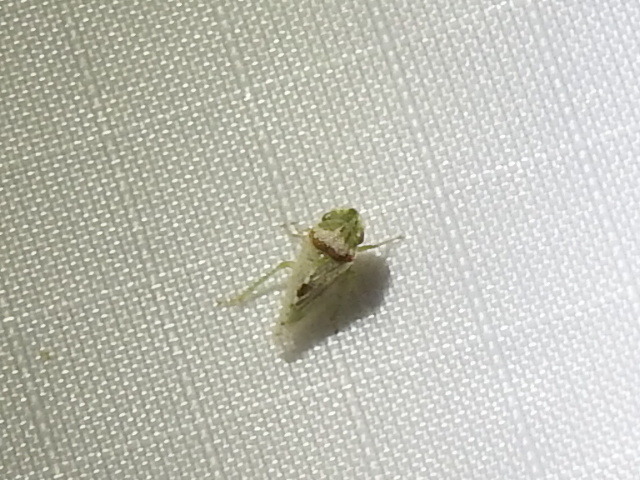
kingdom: Animalia
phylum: Arthropoda
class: Insecta
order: Hemiptera
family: Cicadellidae
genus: Xerophloea
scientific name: Xerophloea viridis
